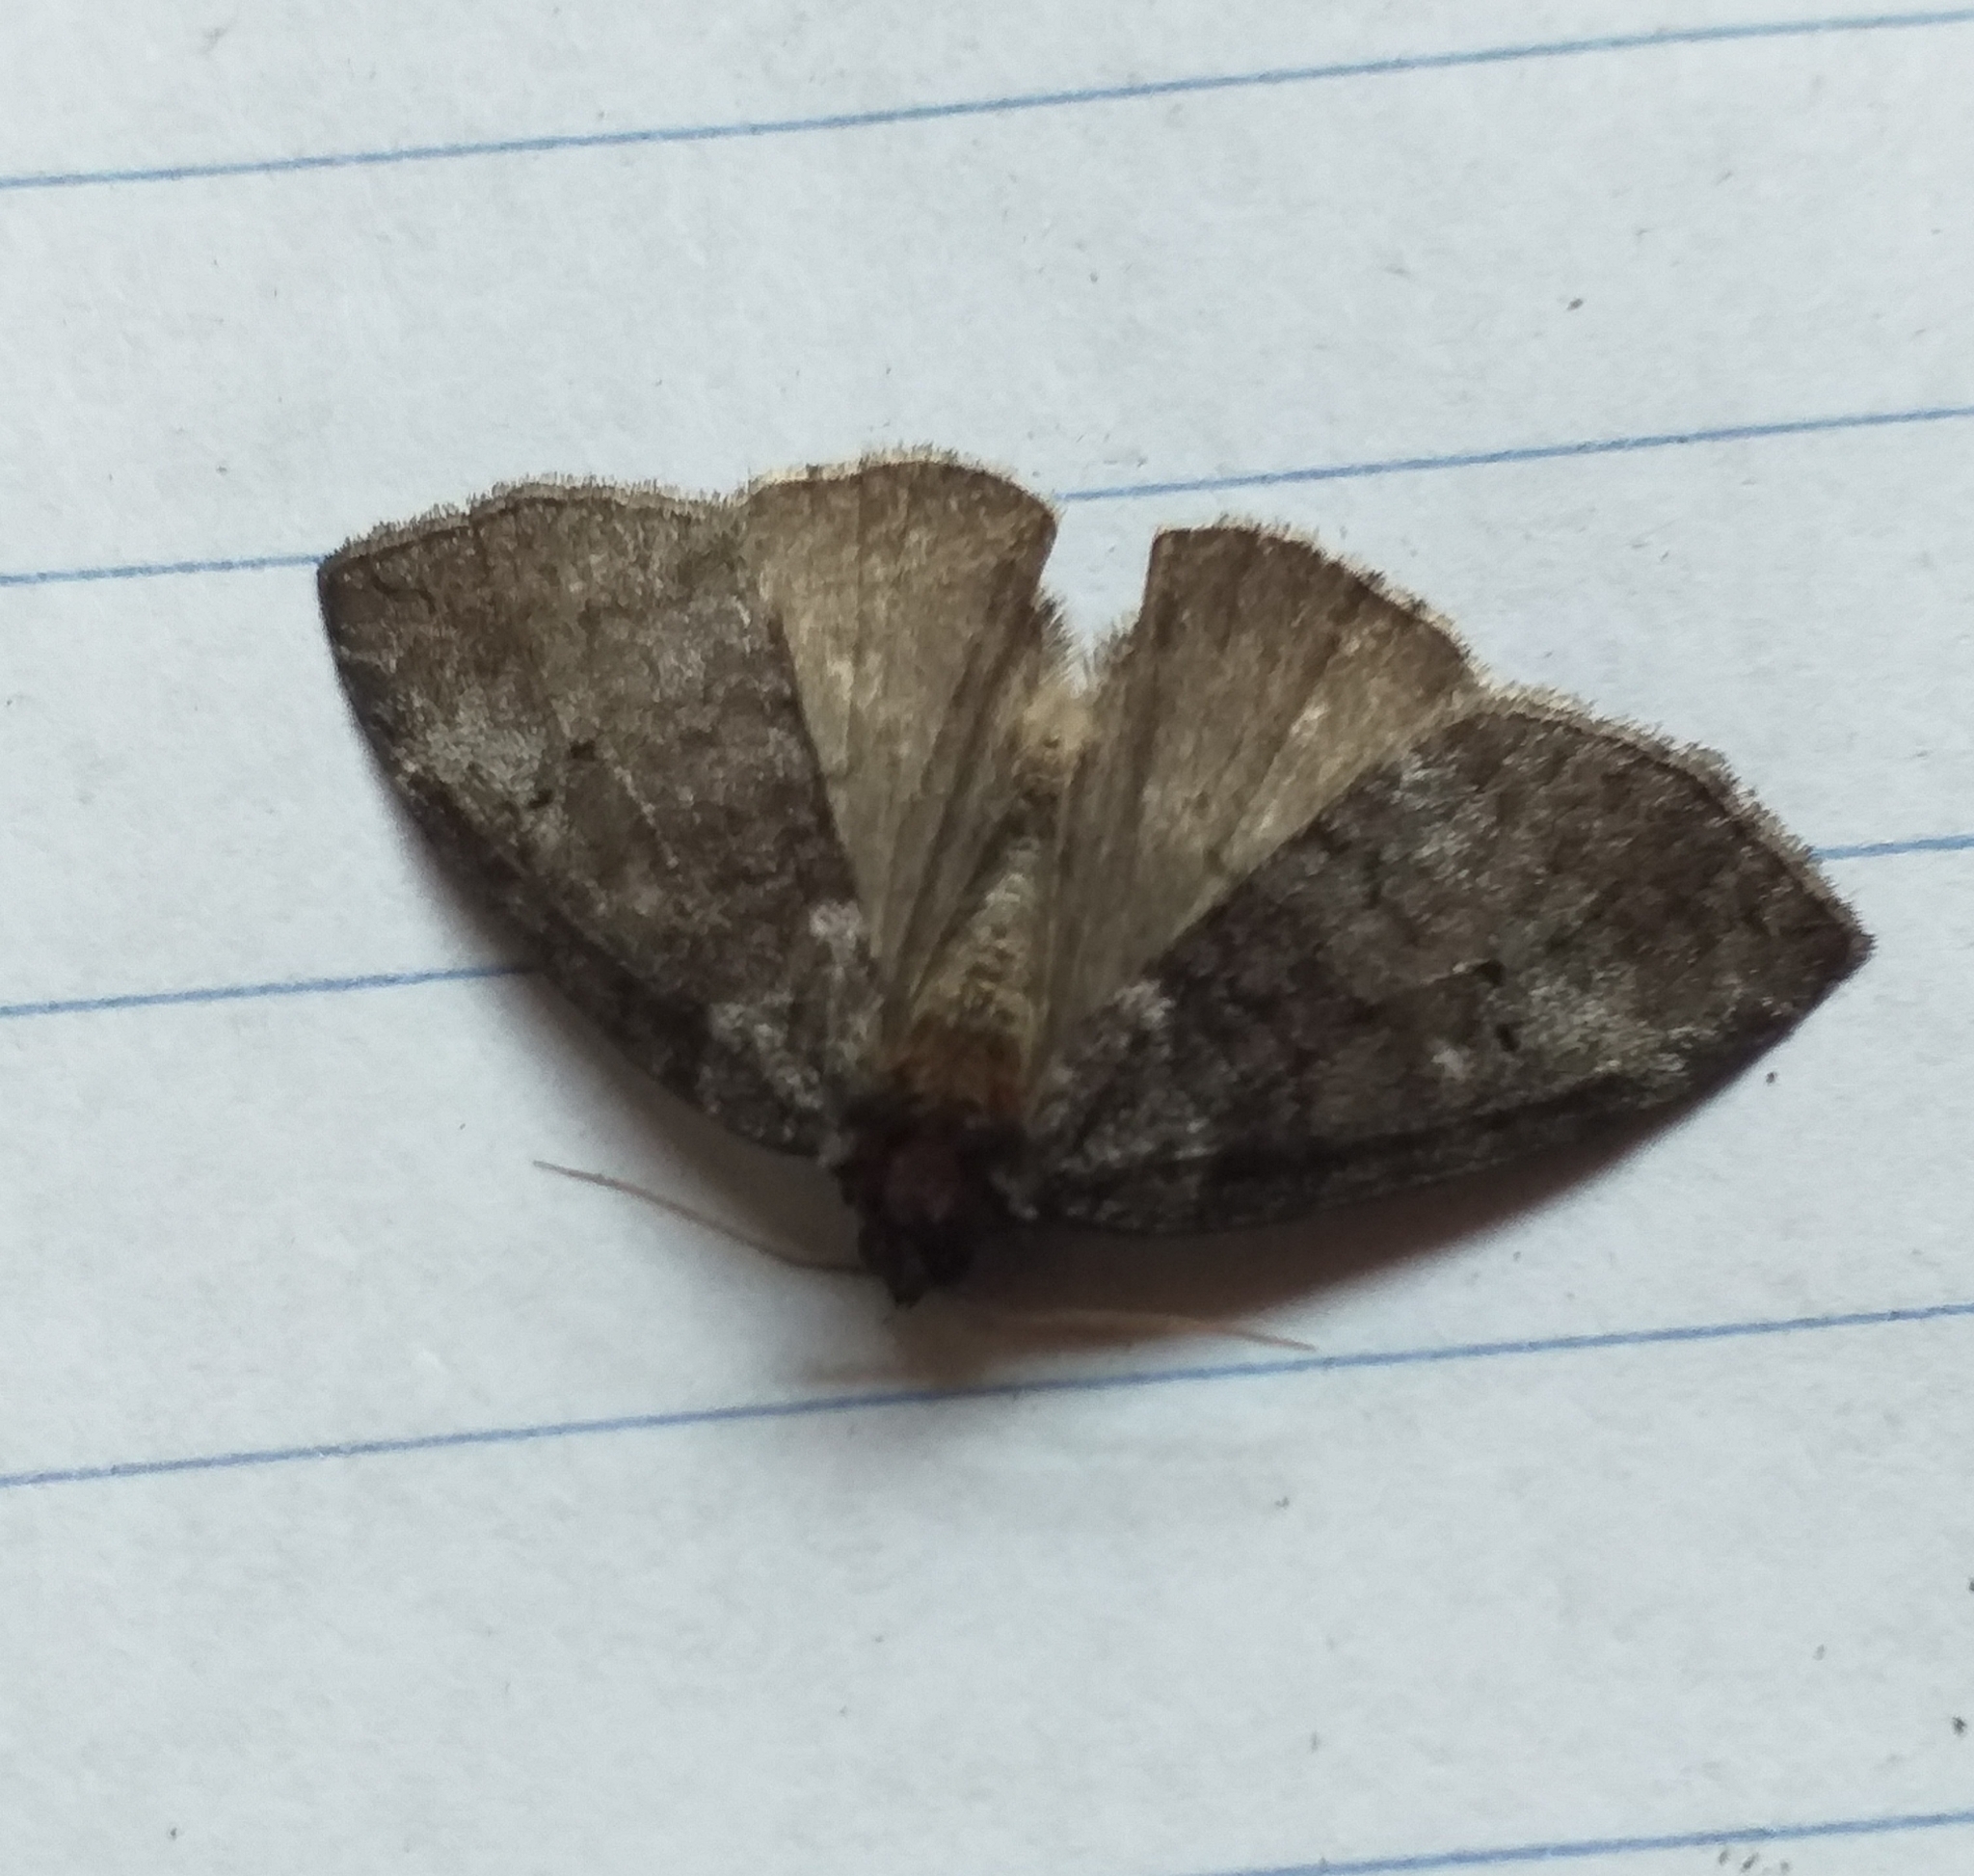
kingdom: Animalia
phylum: Arthropoda
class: Insecta
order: Lepidoptera
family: Drepanidae
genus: Ochropacha
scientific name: Ochropacha duplaris
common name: Common lutestring
